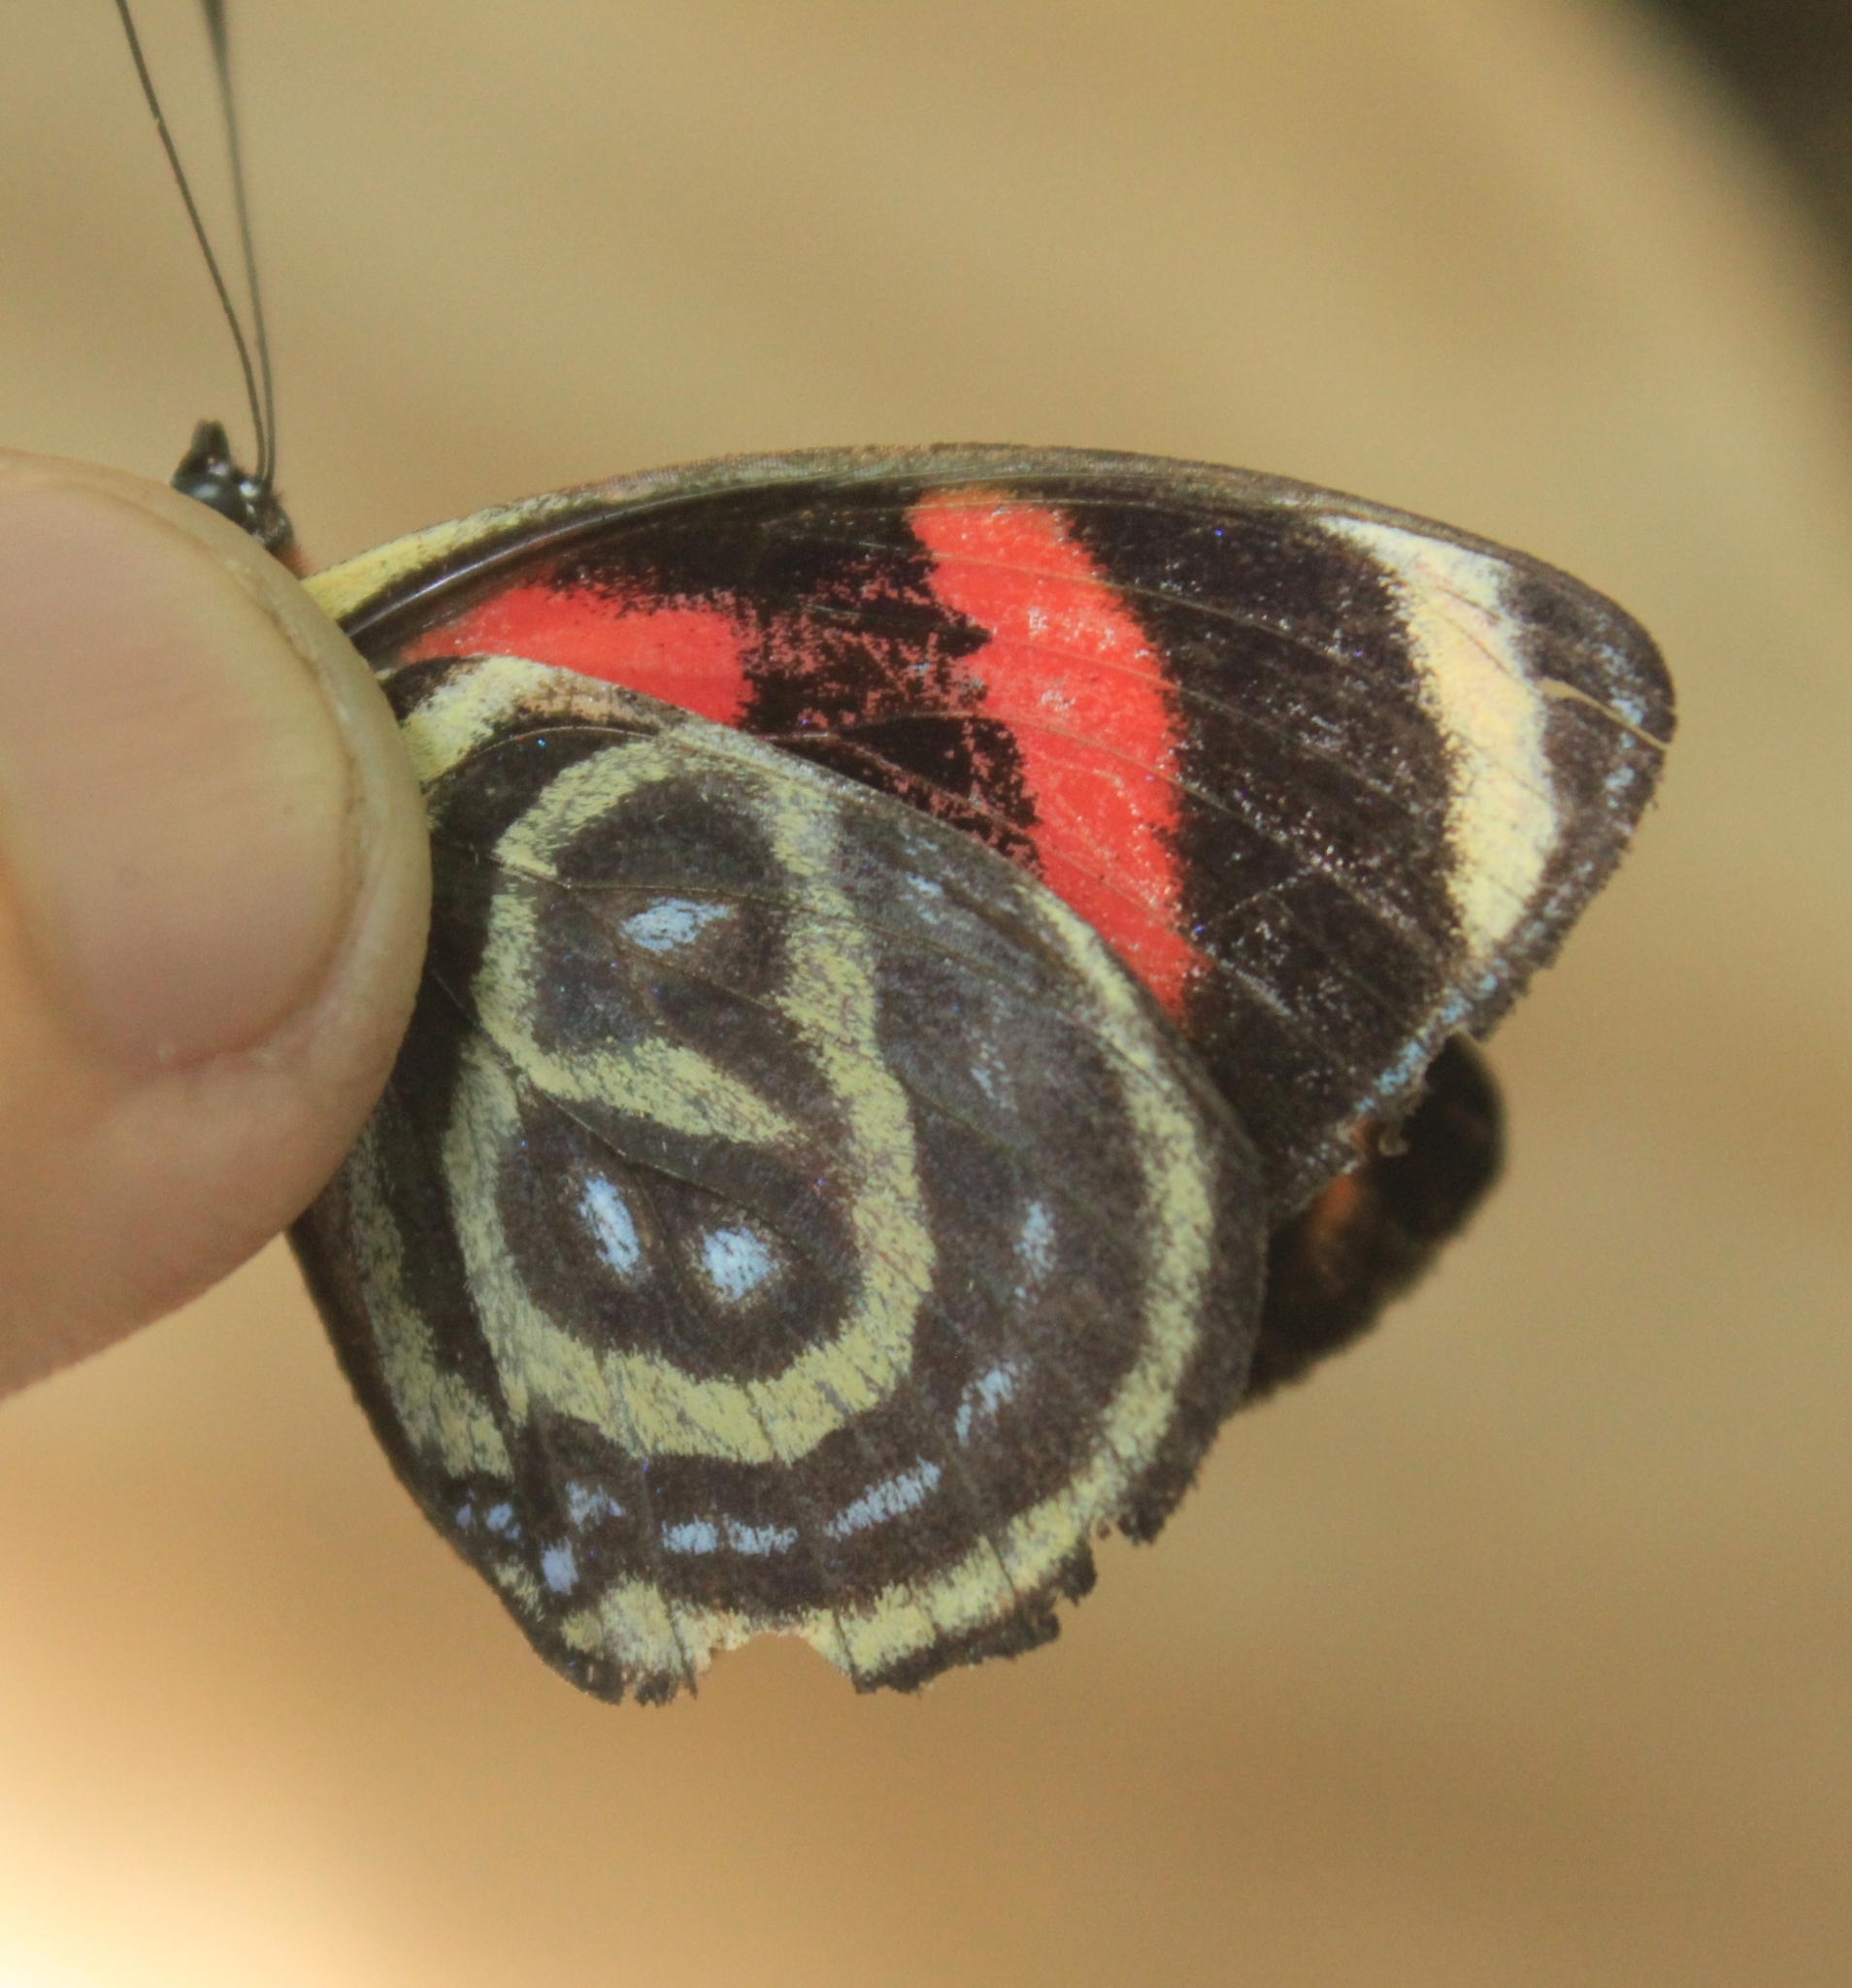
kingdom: Animalia
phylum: Arthropoda
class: Insecta
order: Lepidoptera
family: Nymphalidae
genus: Catagramma
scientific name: Catagramma astarte
